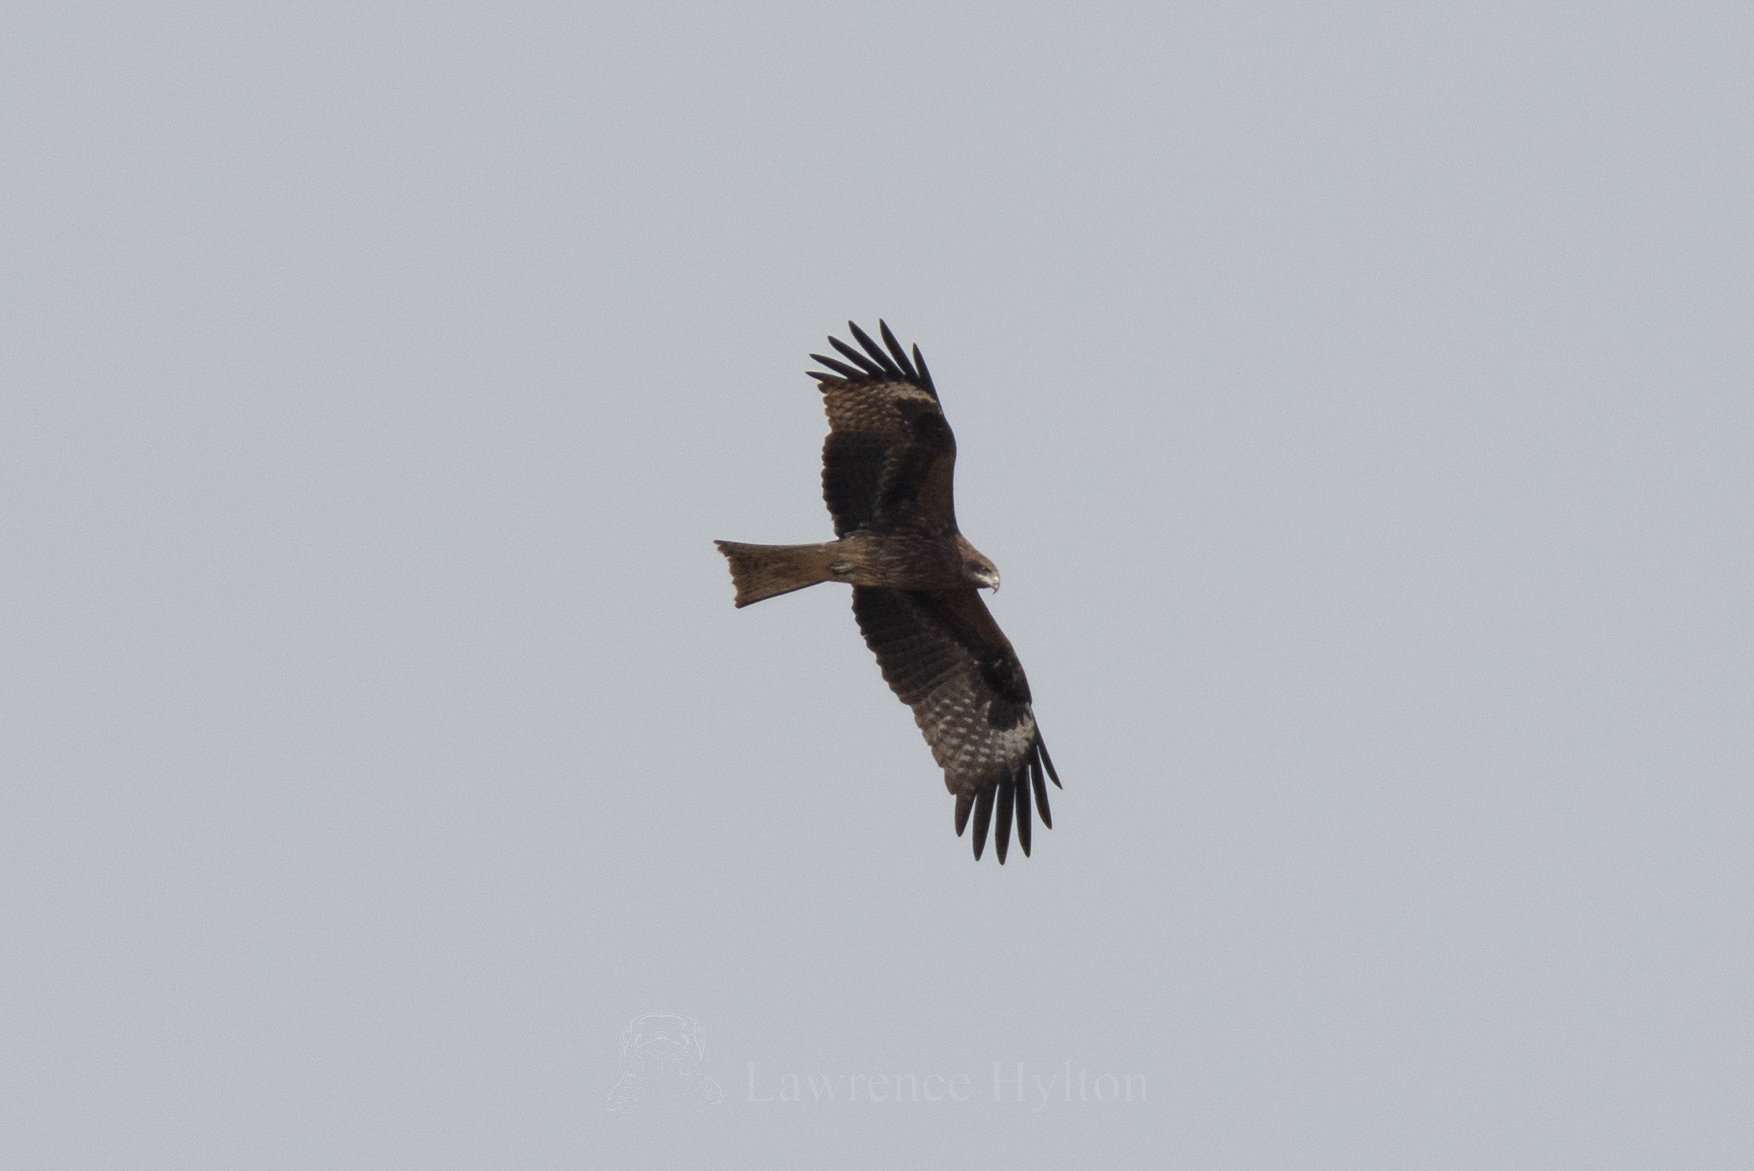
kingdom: Animalia
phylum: Chordata
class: Aves
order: Accipitriformes
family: Accipitridae
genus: Milvus
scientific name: Milvus migrans
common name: Black kite
